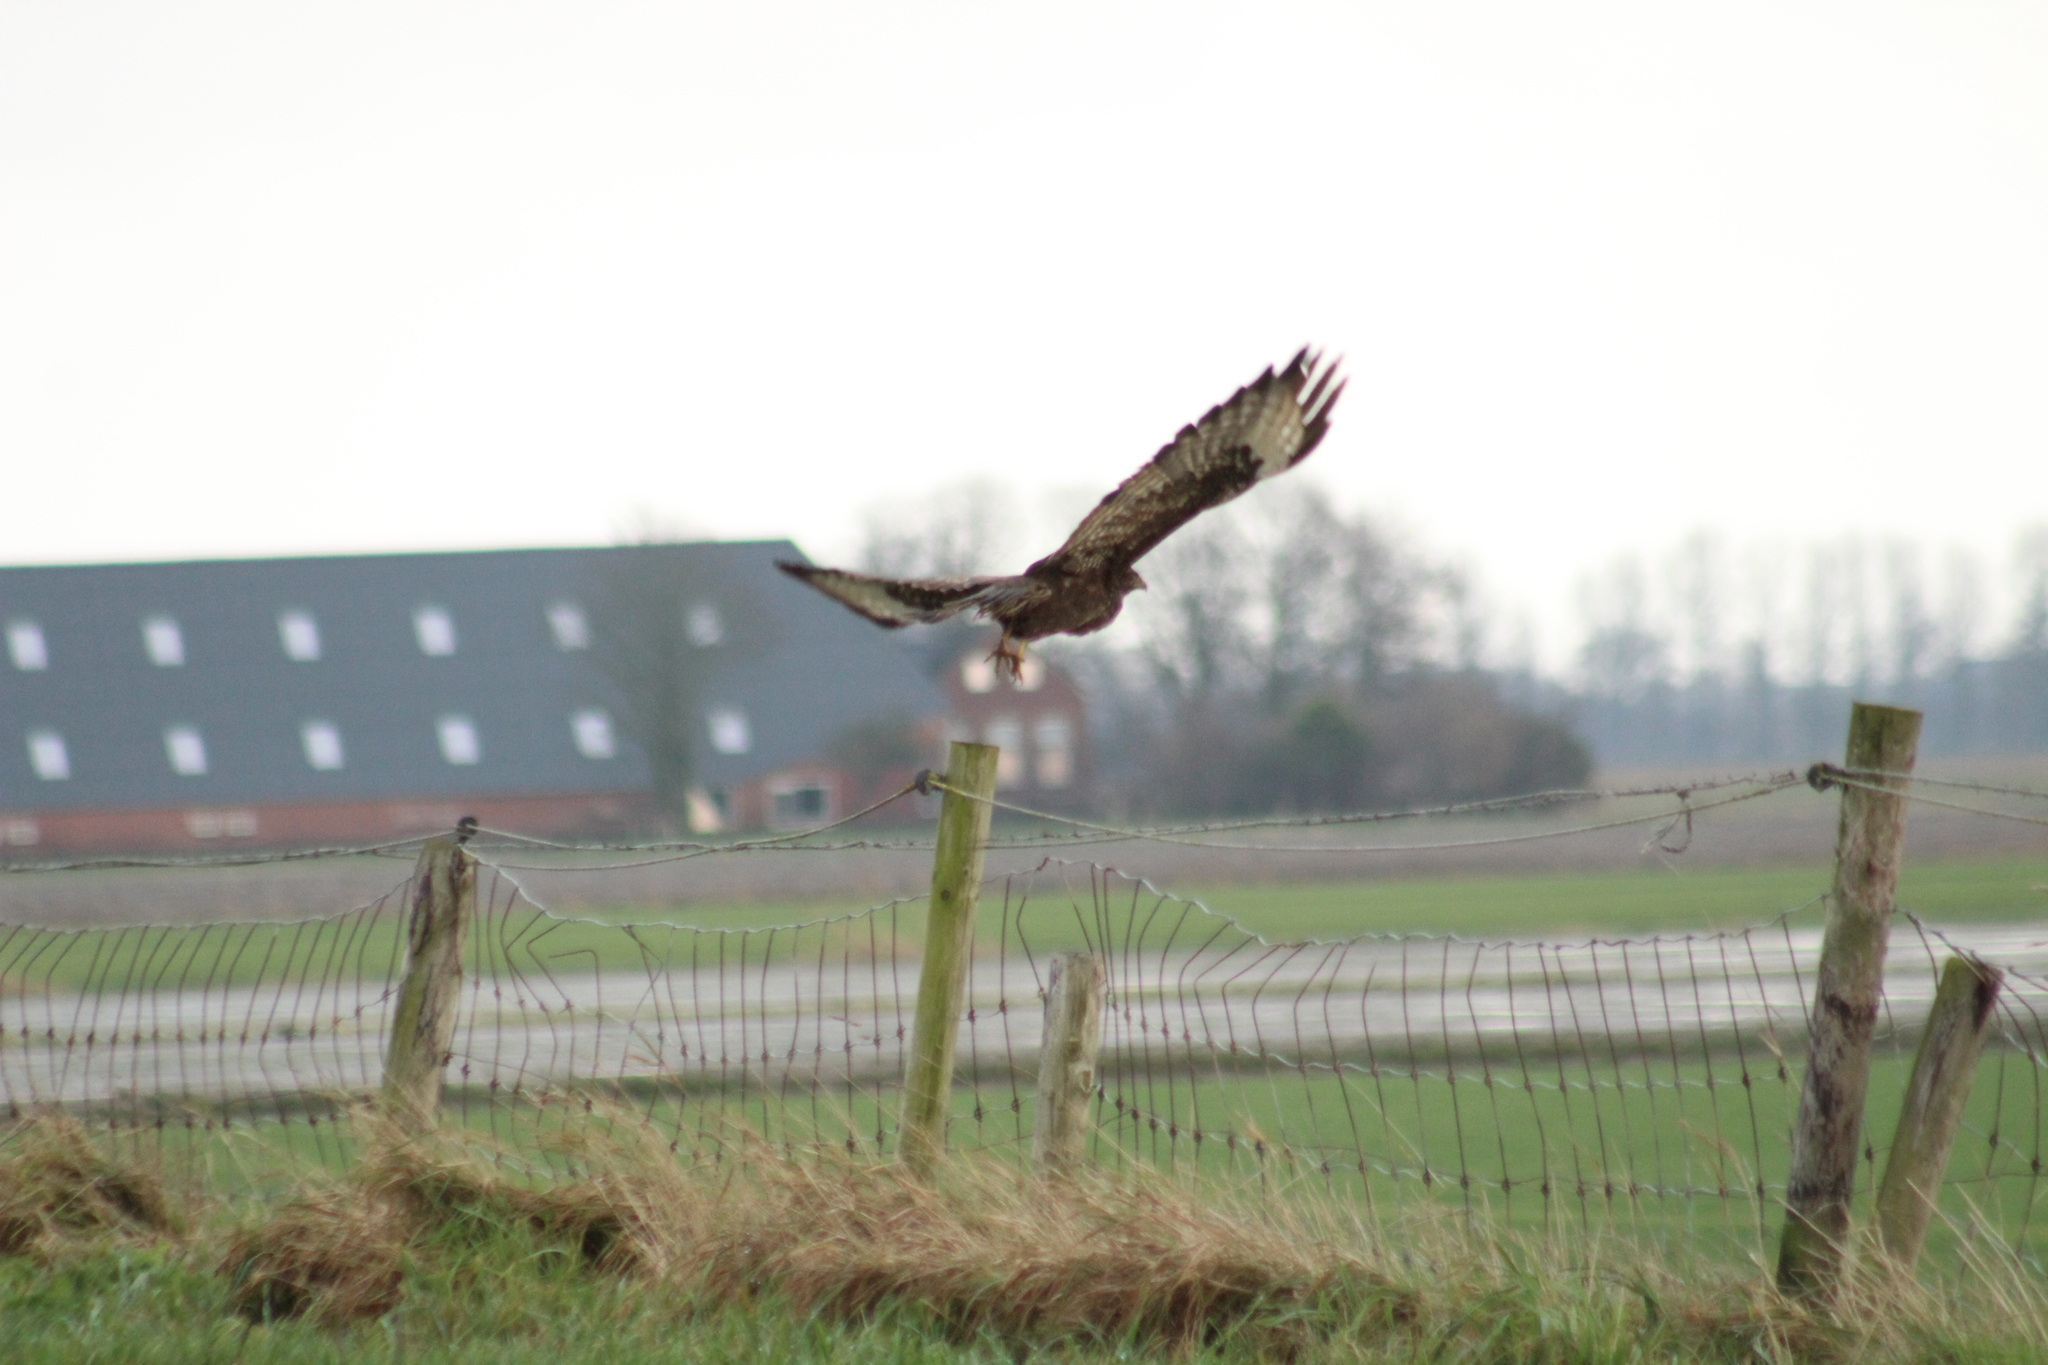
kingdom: Animalia
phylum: Chordata
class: Aves
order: Accipitriformes
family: Accipitridae
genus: Buteo
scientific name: Buteo buteo
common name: Common buzzard
